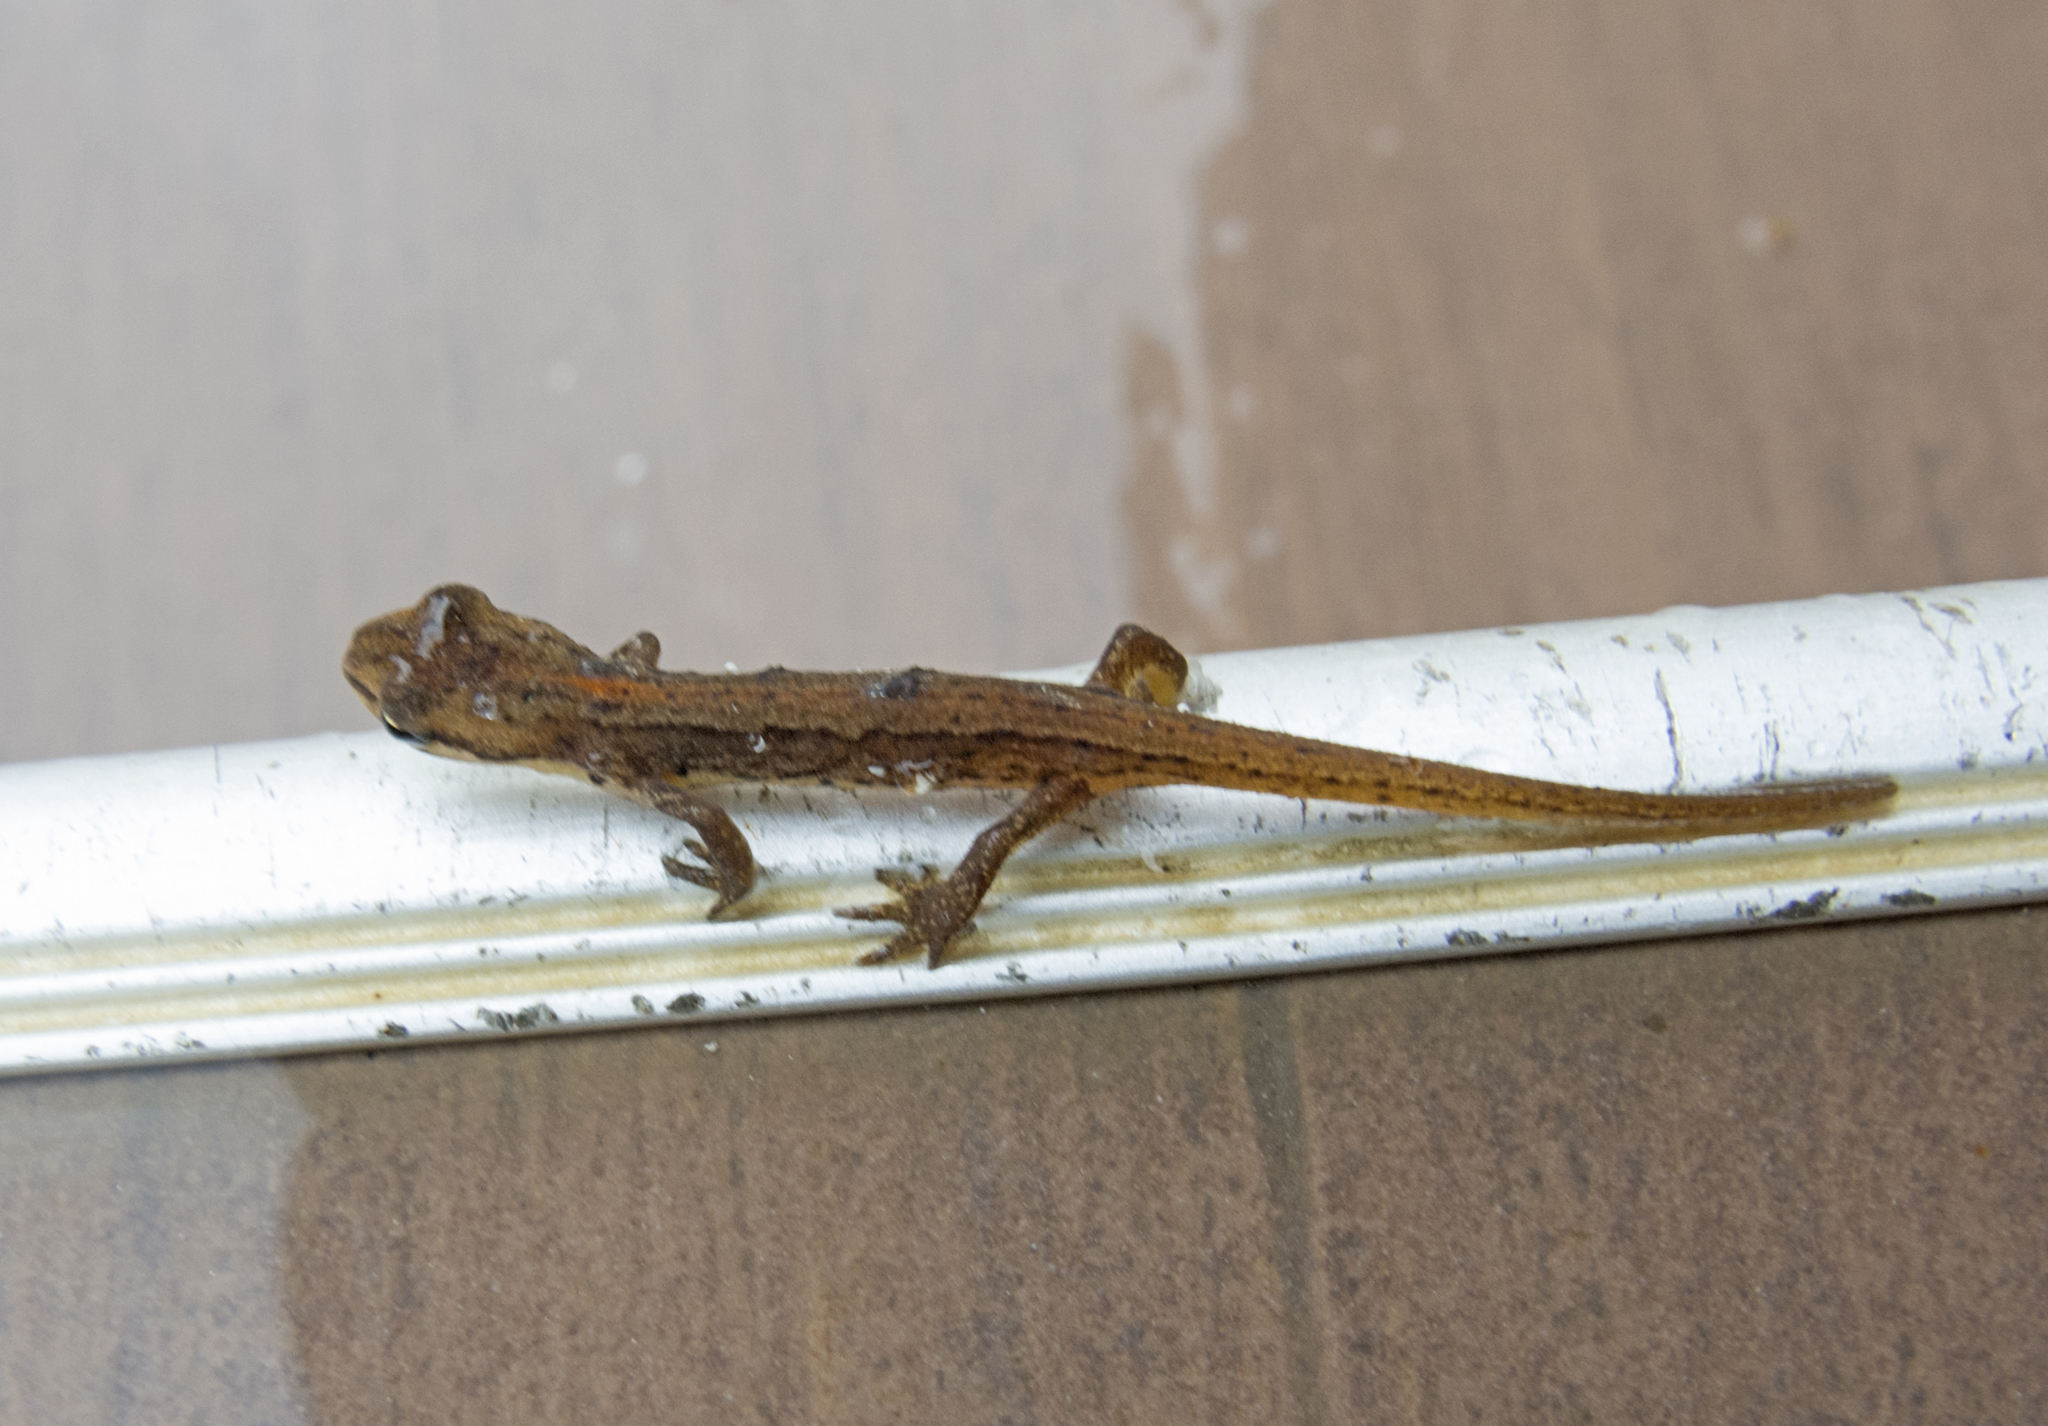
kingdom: Animalia
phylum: Chordata
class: Amphibia
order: Caudata
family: Salamandridae
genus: Lissotriton
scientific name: Lissotriton schmidtleri
